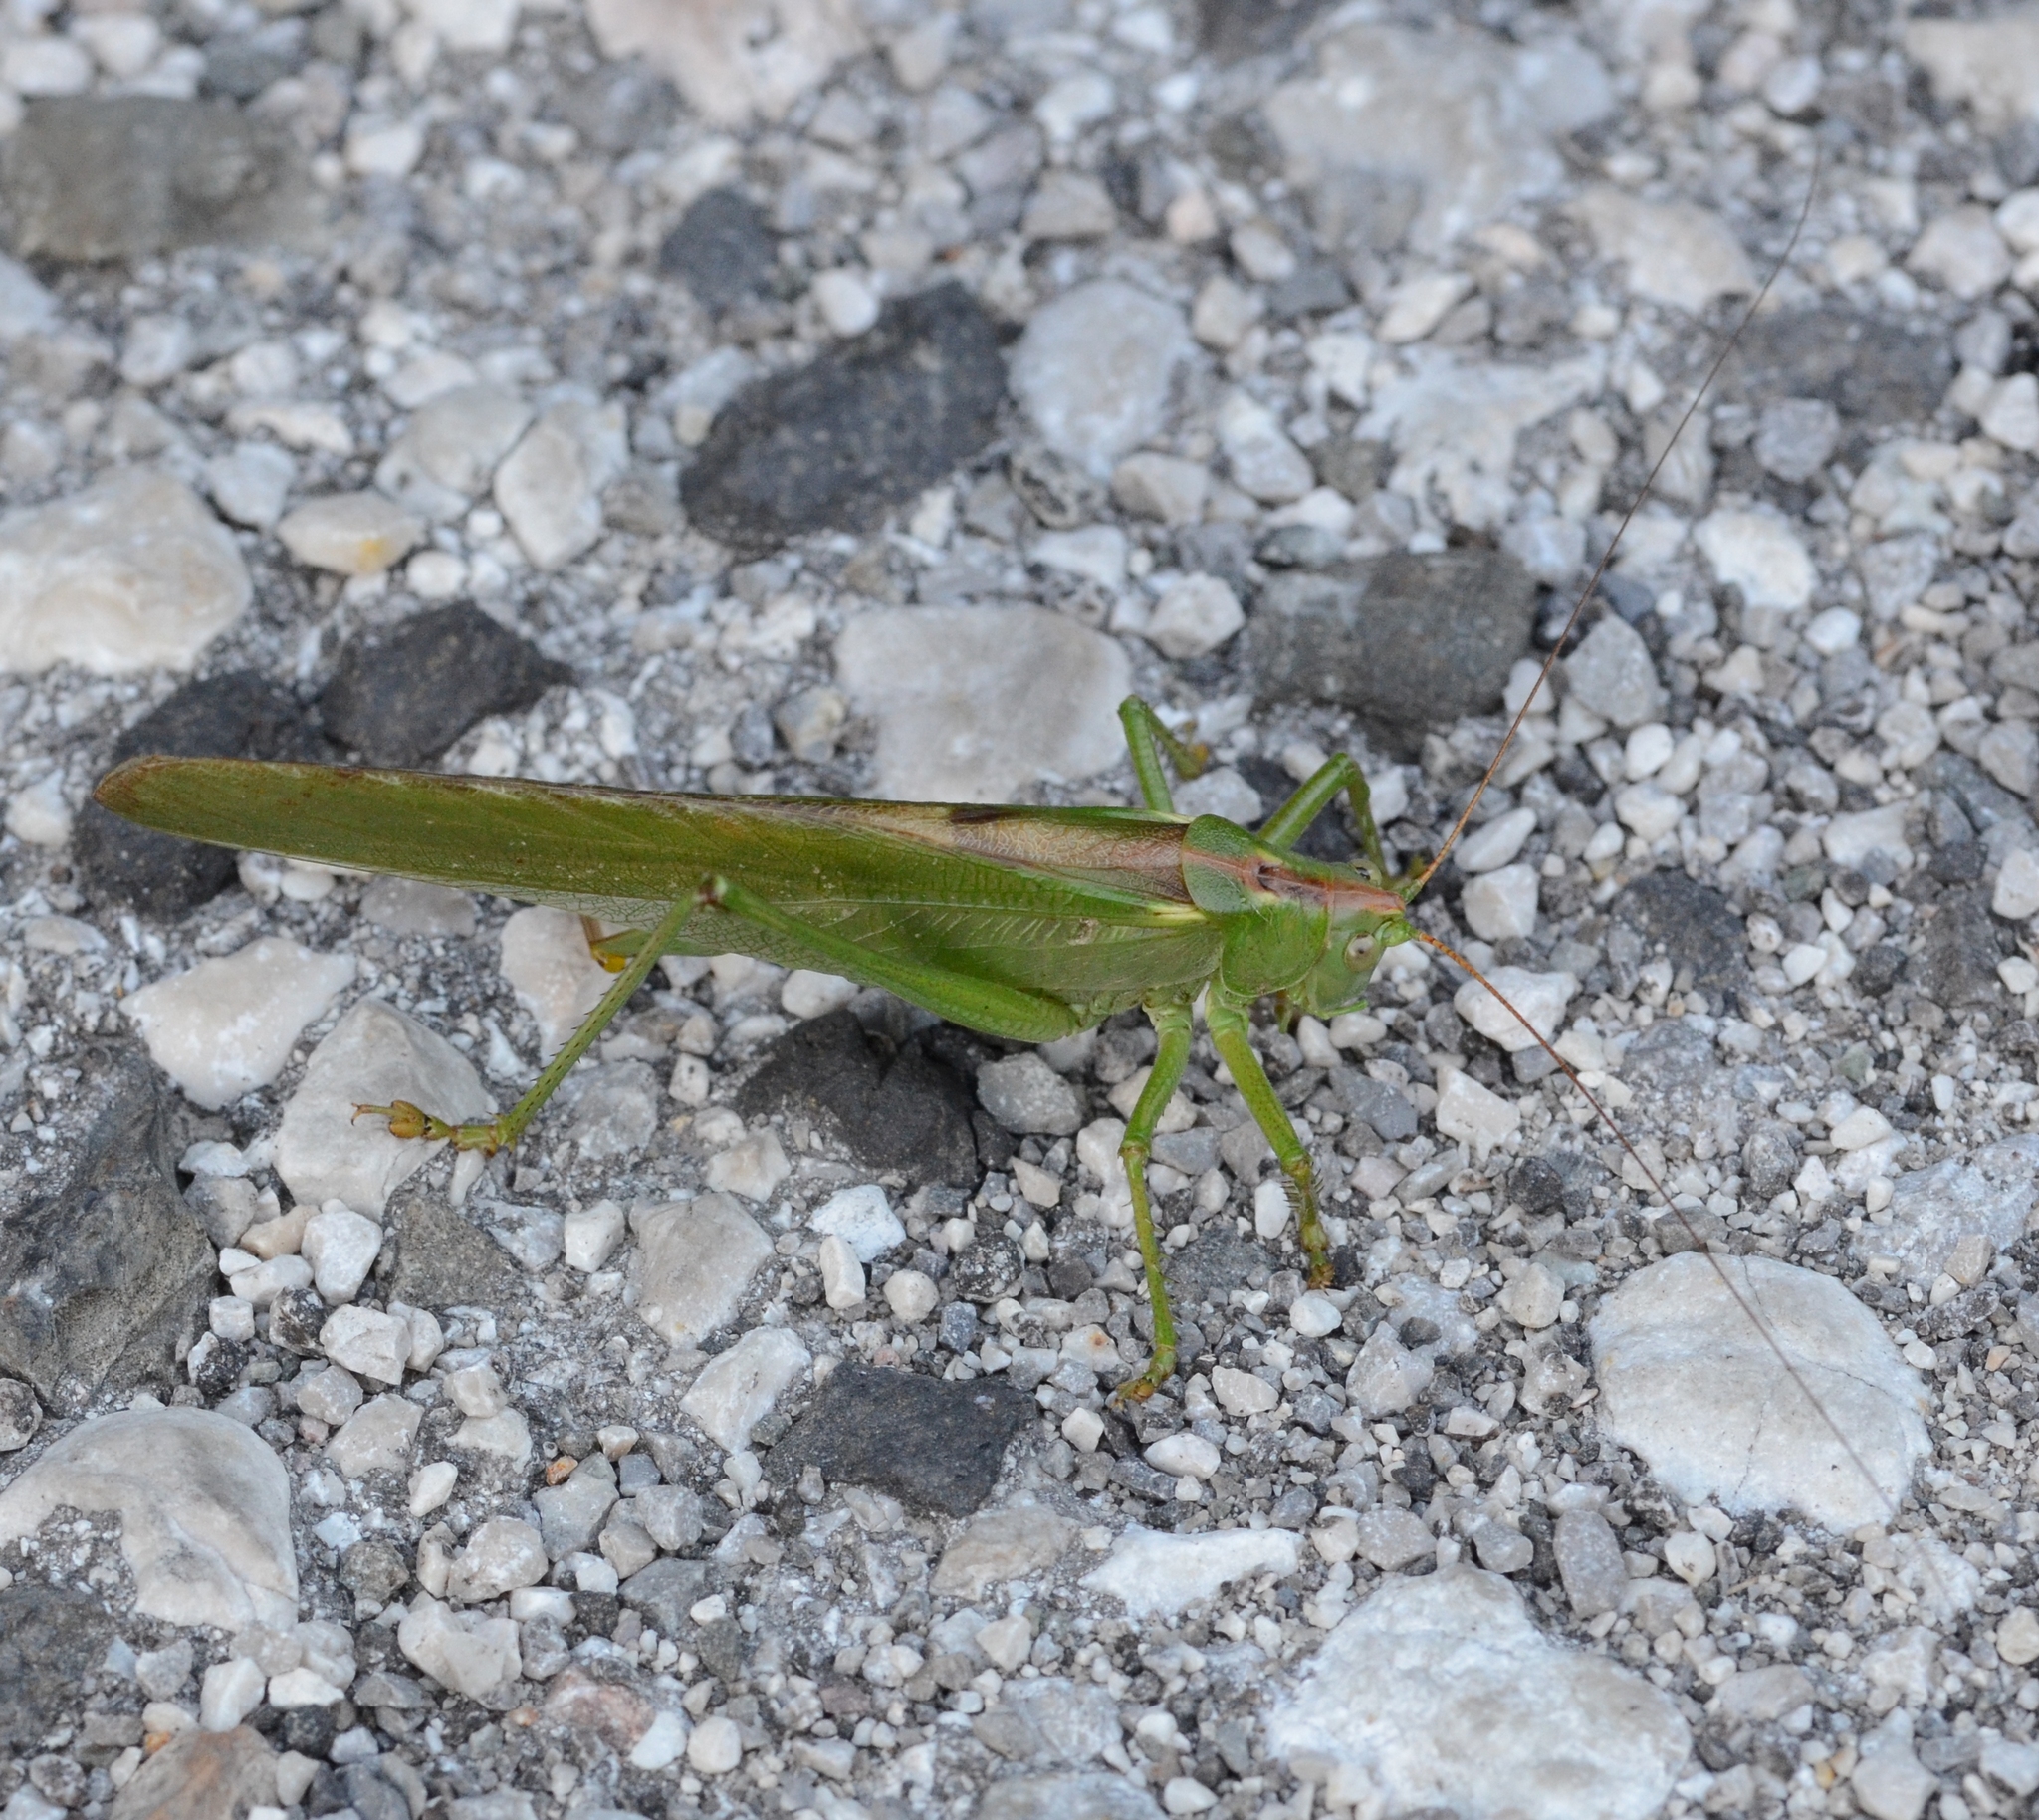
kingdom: Animalia
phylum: Arthropoda
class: Insecta
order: Orthoptera
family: Tettigoniidae
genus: Tettigonia
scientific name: Tettigonia viridissima
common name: Great green bush-cricket
